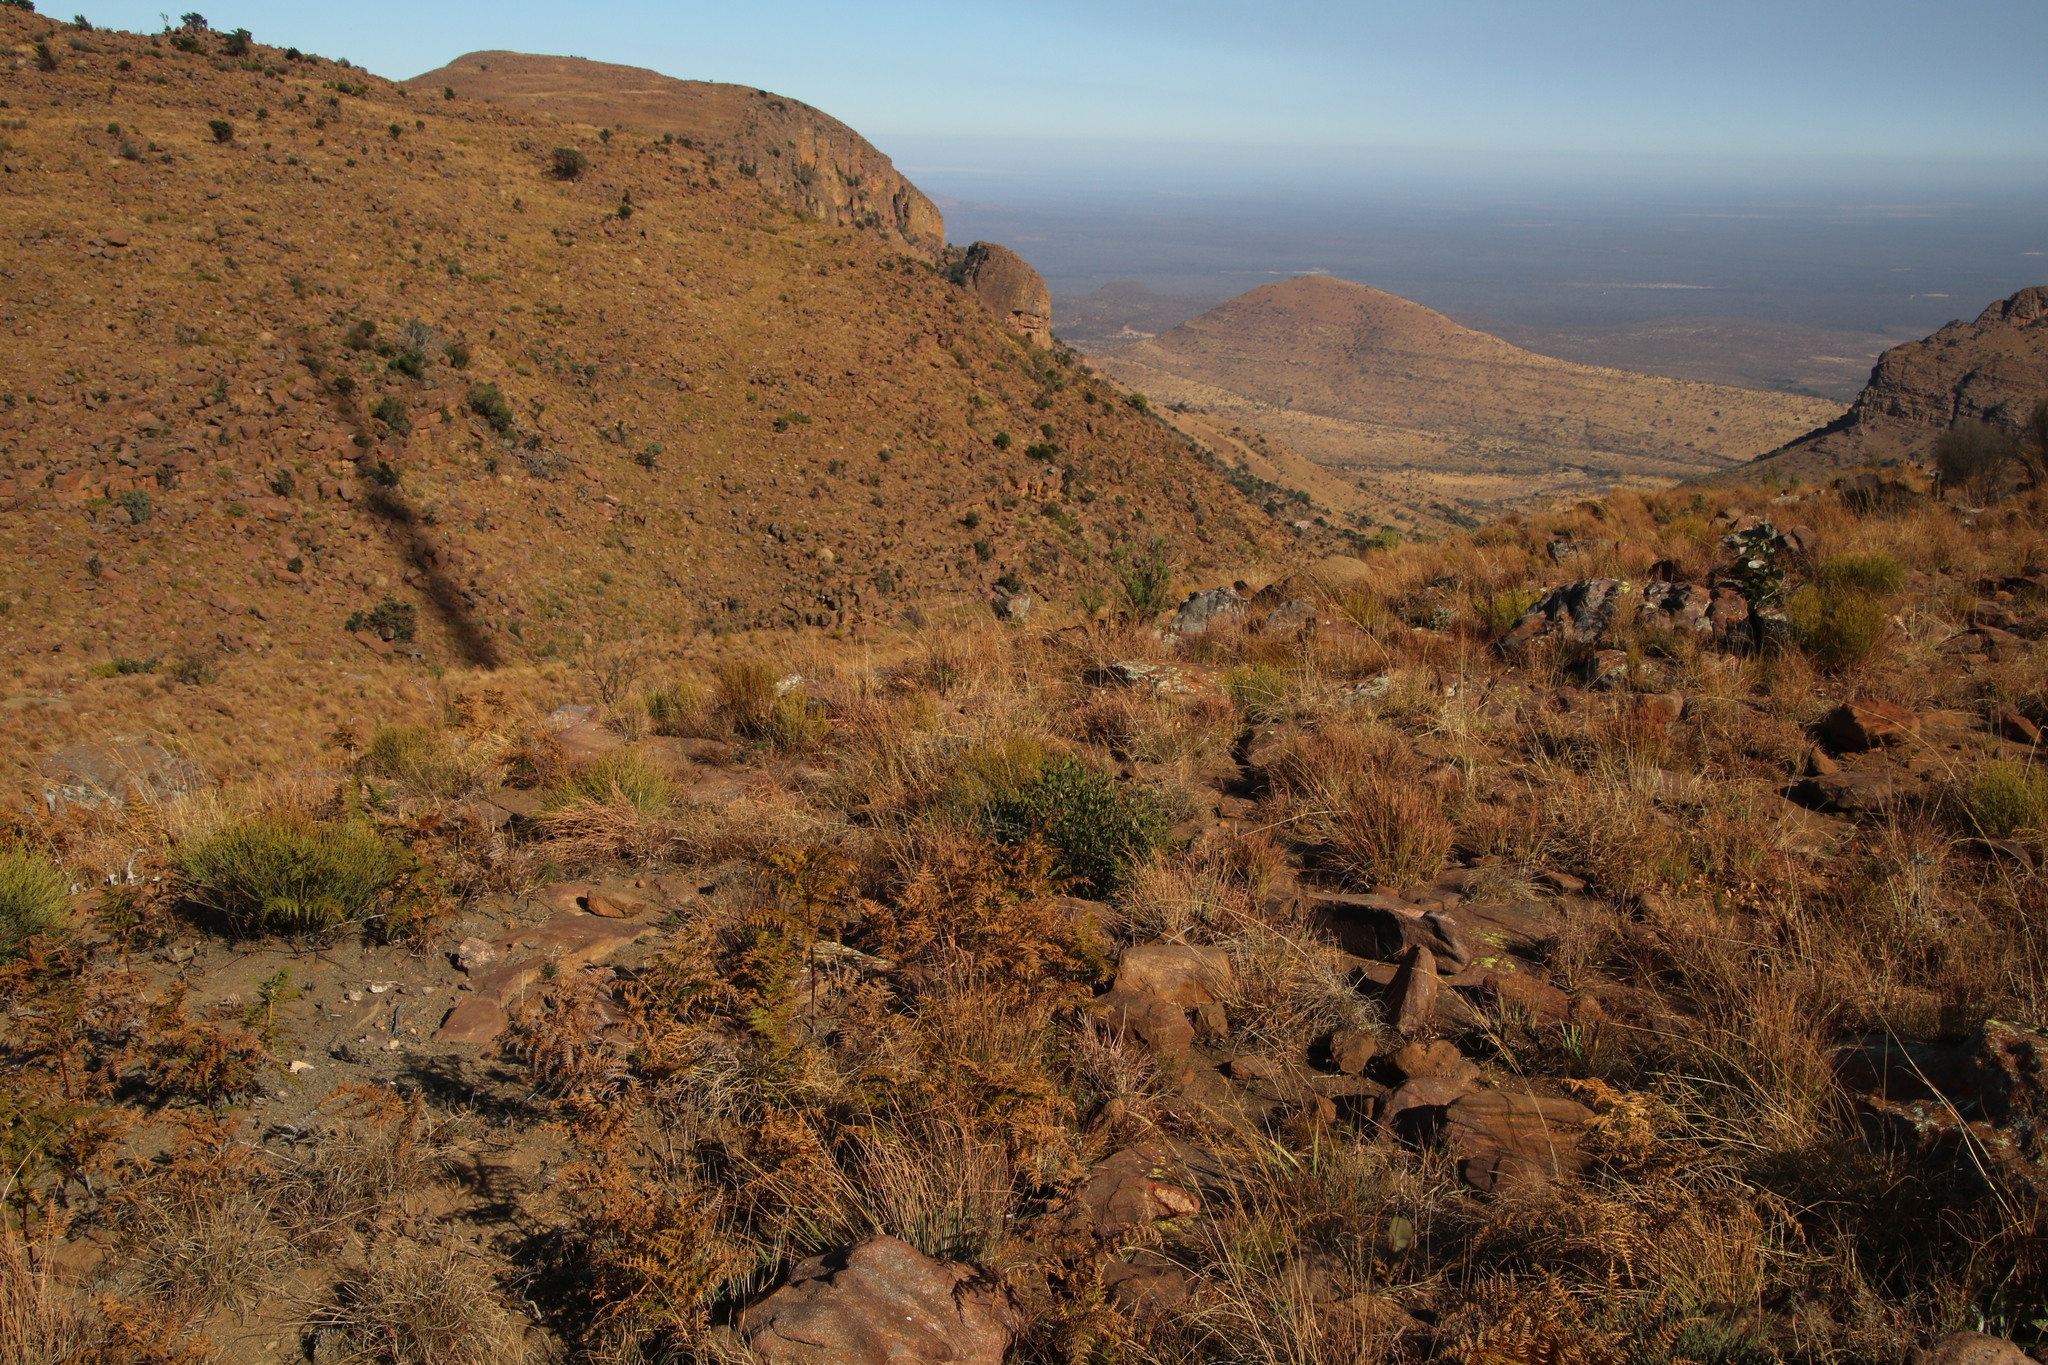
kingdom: Plantae
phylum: Tracheophyta
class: Polypodiopsida
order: Polypodiales
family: Dennstaedtiaceae
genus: Pteridium
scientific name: Pteridium aquilinum
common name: Bracken
